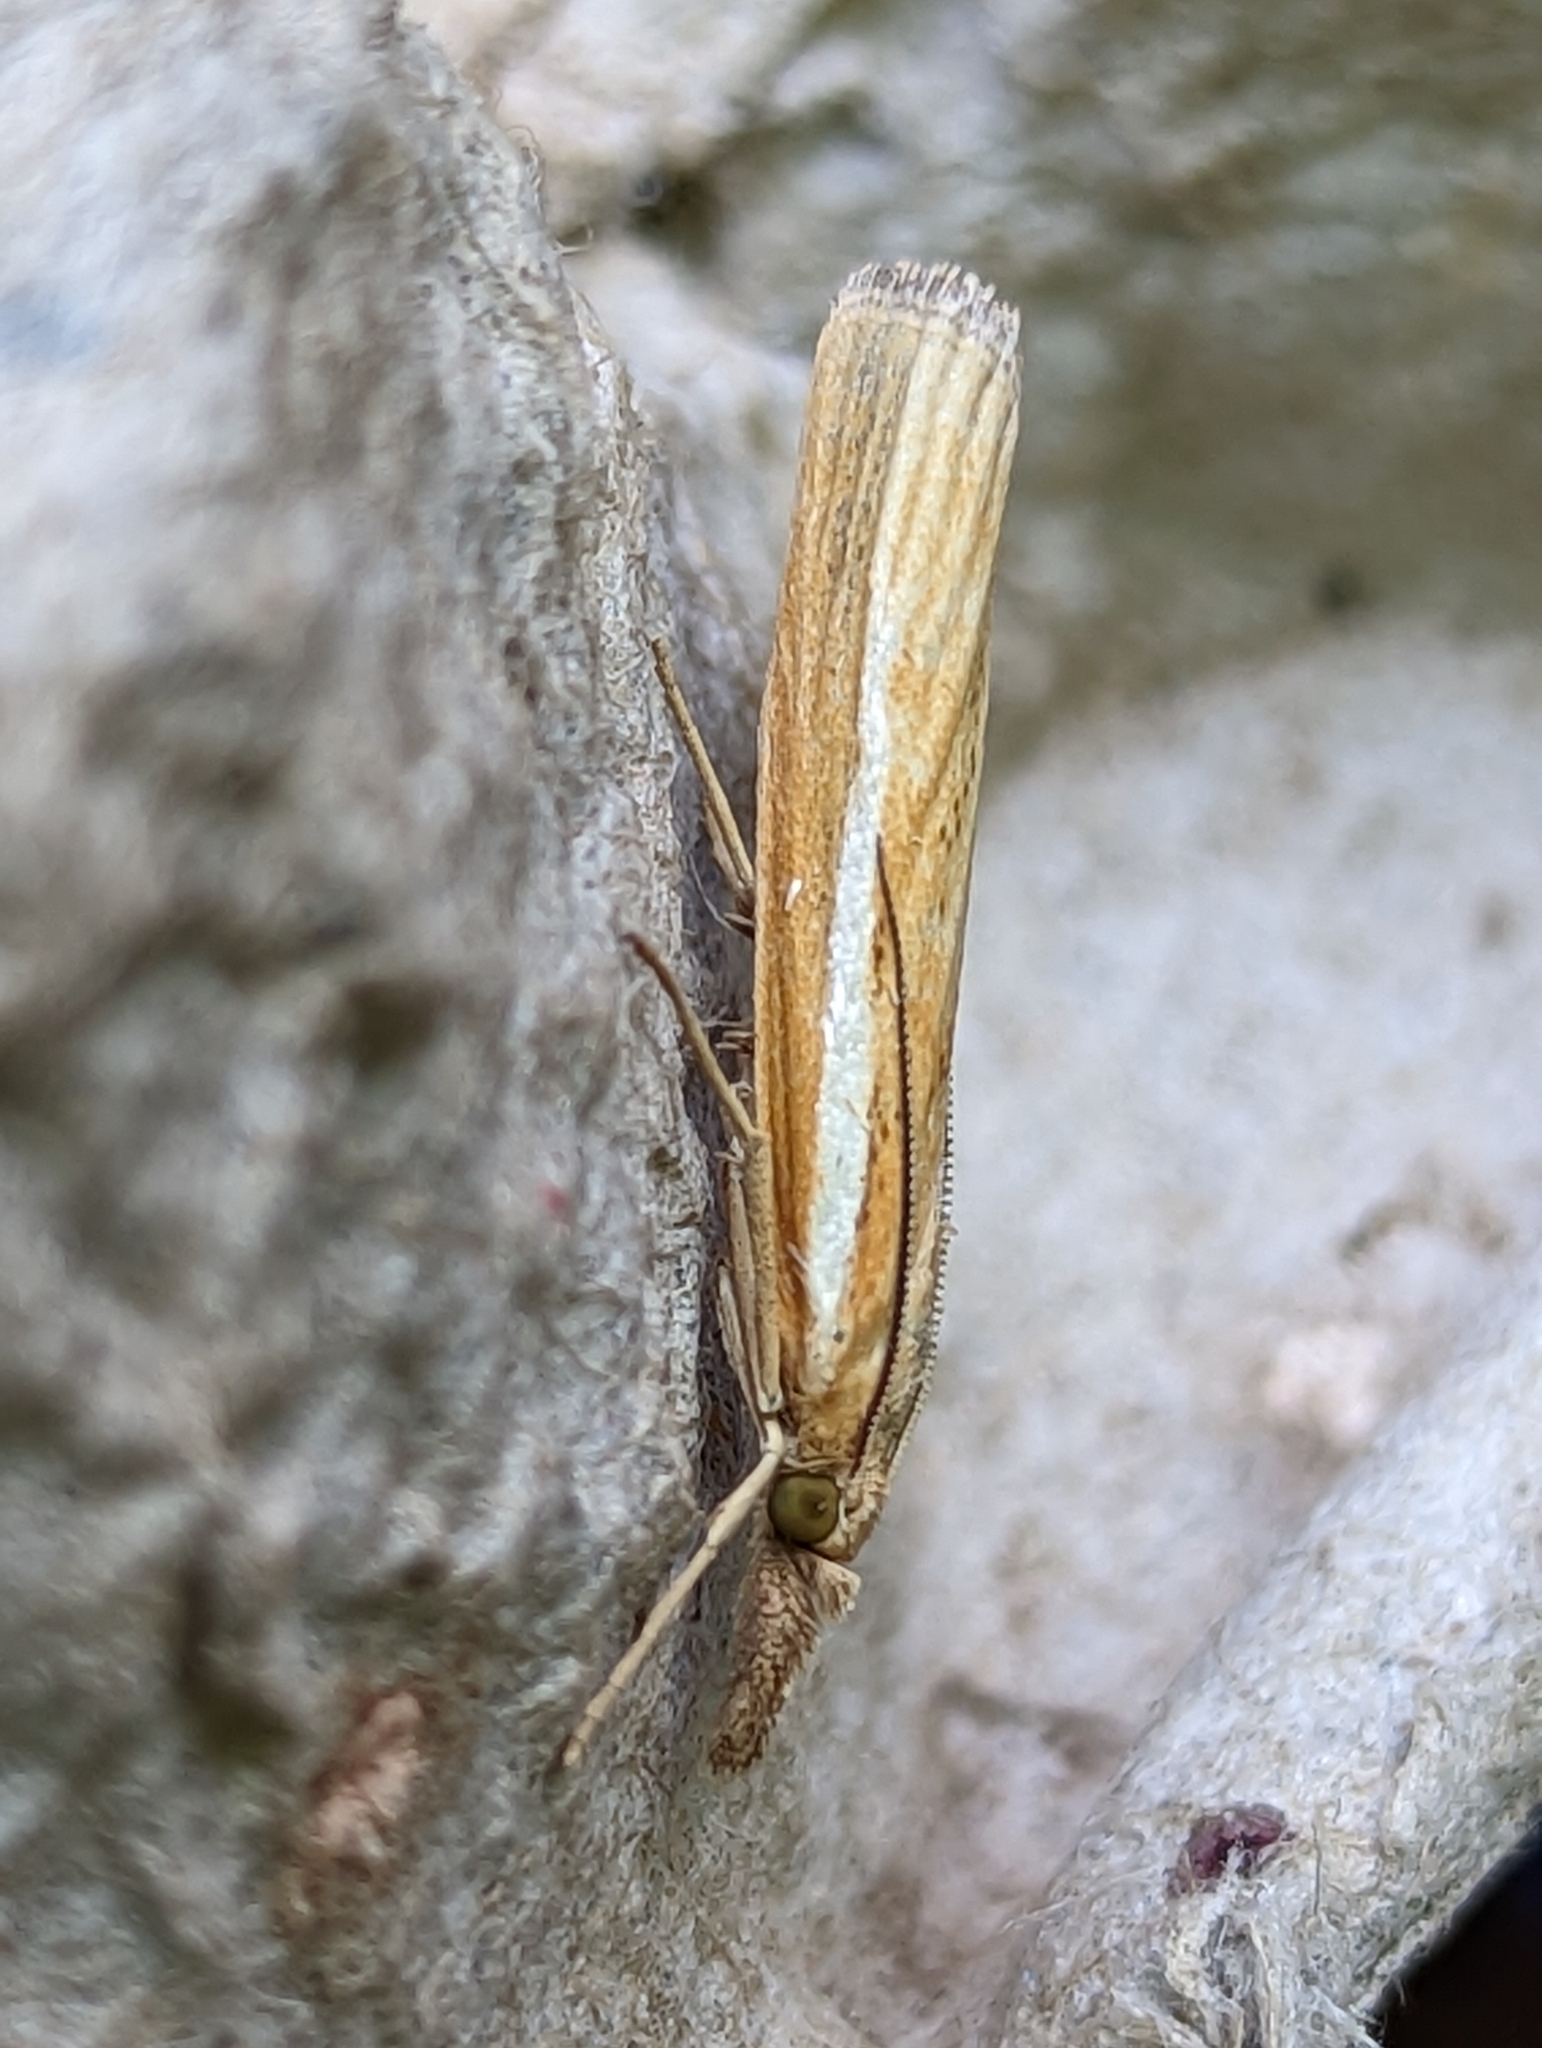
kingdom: Animalia
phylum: Arthropoda
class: Insecta
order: Lepidoptera
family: Crambidae
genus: Agriphila
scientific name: Agriphila tristellus
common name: Common grass-veneer
